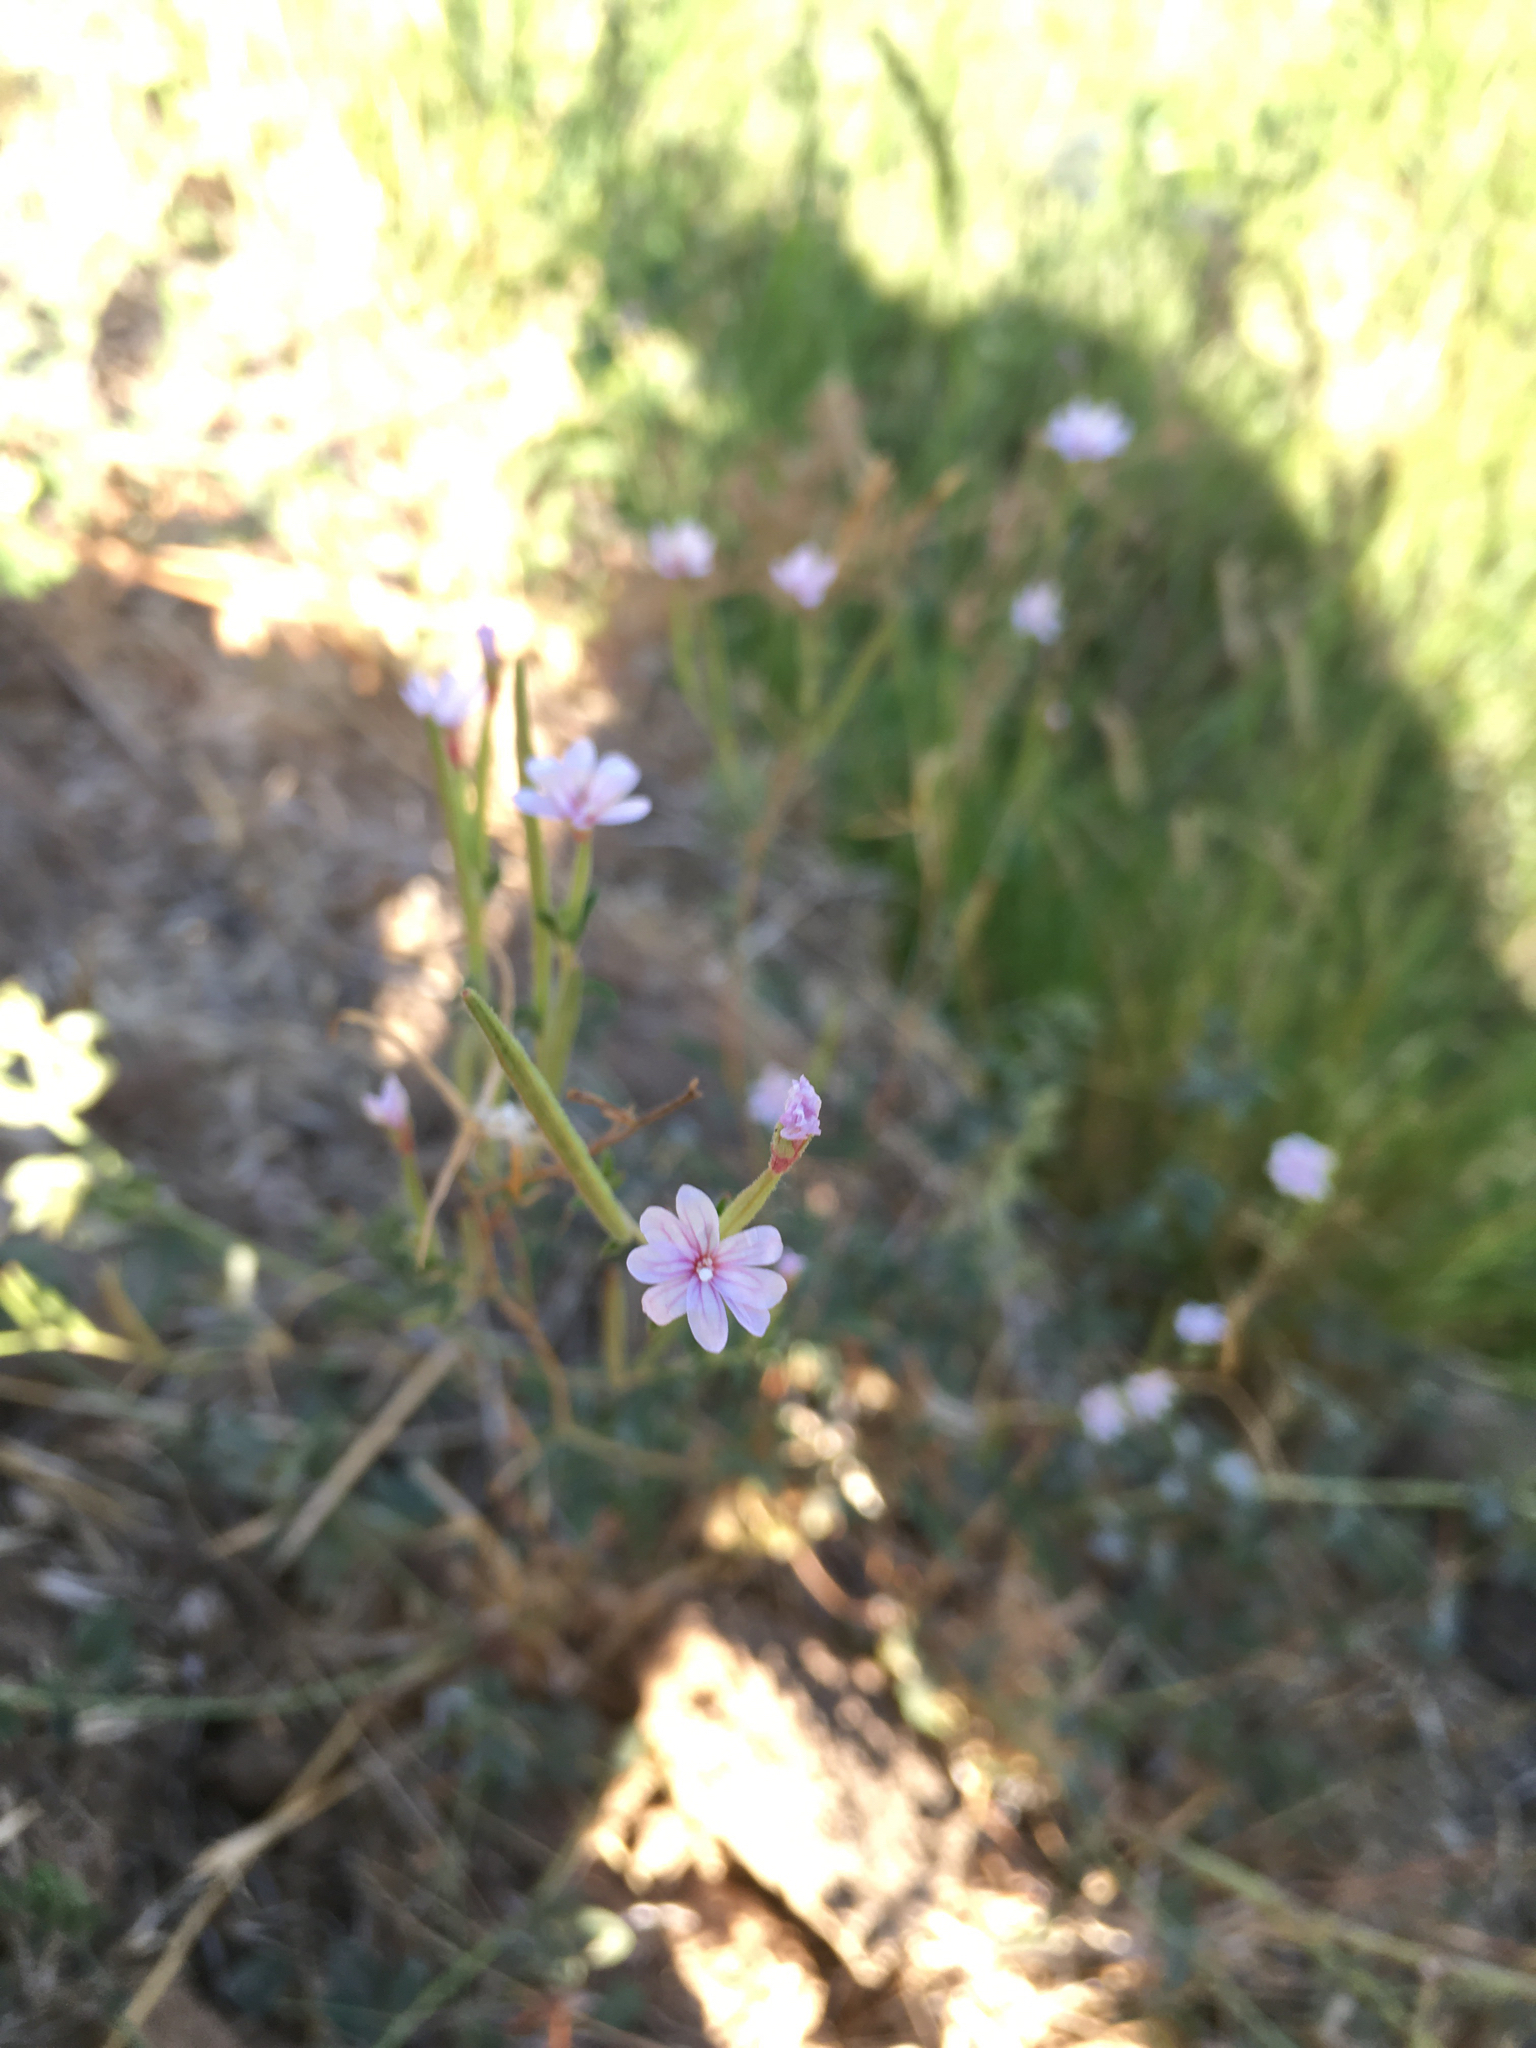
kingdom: Plantae
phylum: Tracheophyta
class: Magnoliopsida
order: Myrtales
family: Onagraceae
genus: Epilobium
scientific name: Epilobium brachycarpum
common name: Annual willowherb
